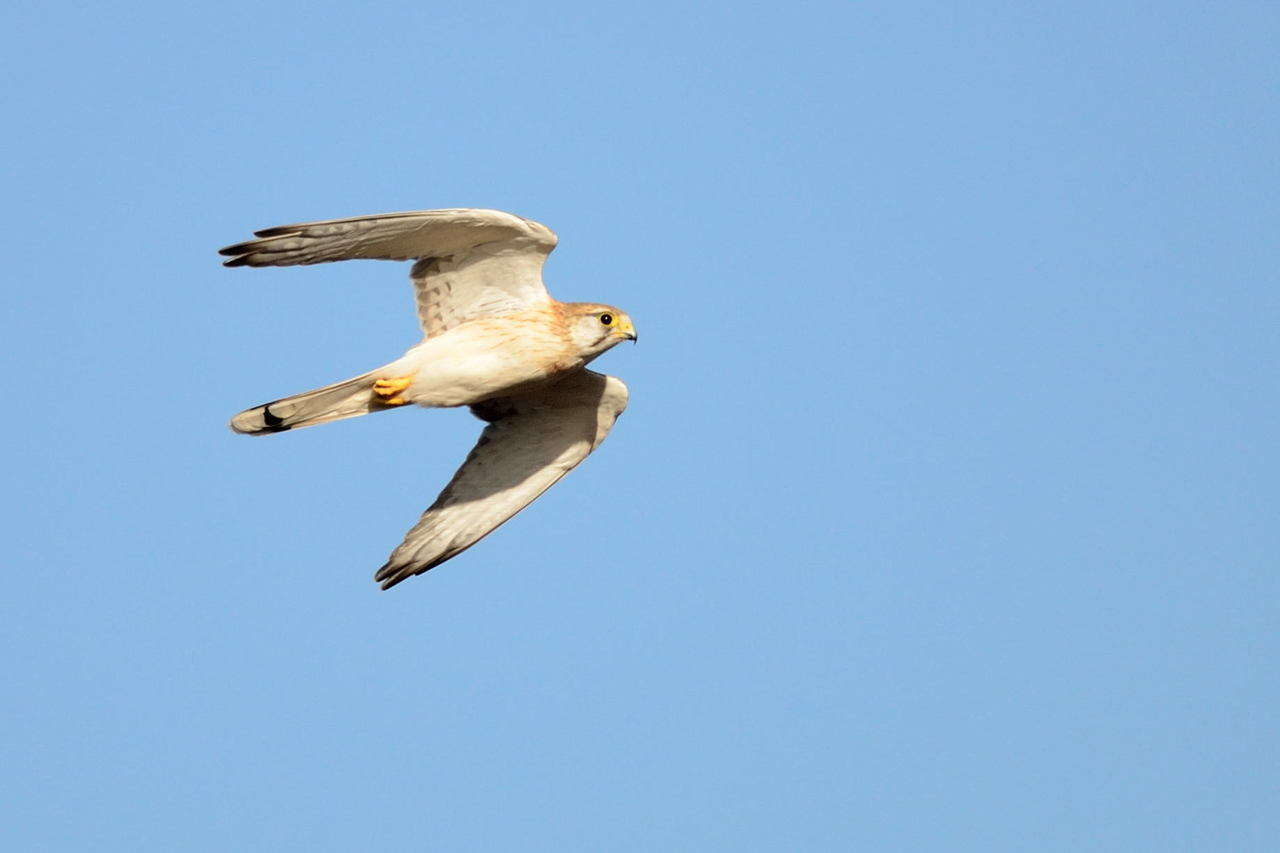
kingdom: Animalia
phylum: Chordata
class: Aves
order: Falconiformes
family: Falconidae
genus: Falco
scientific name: Falco cenchroides
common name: Nankeen kestrel
